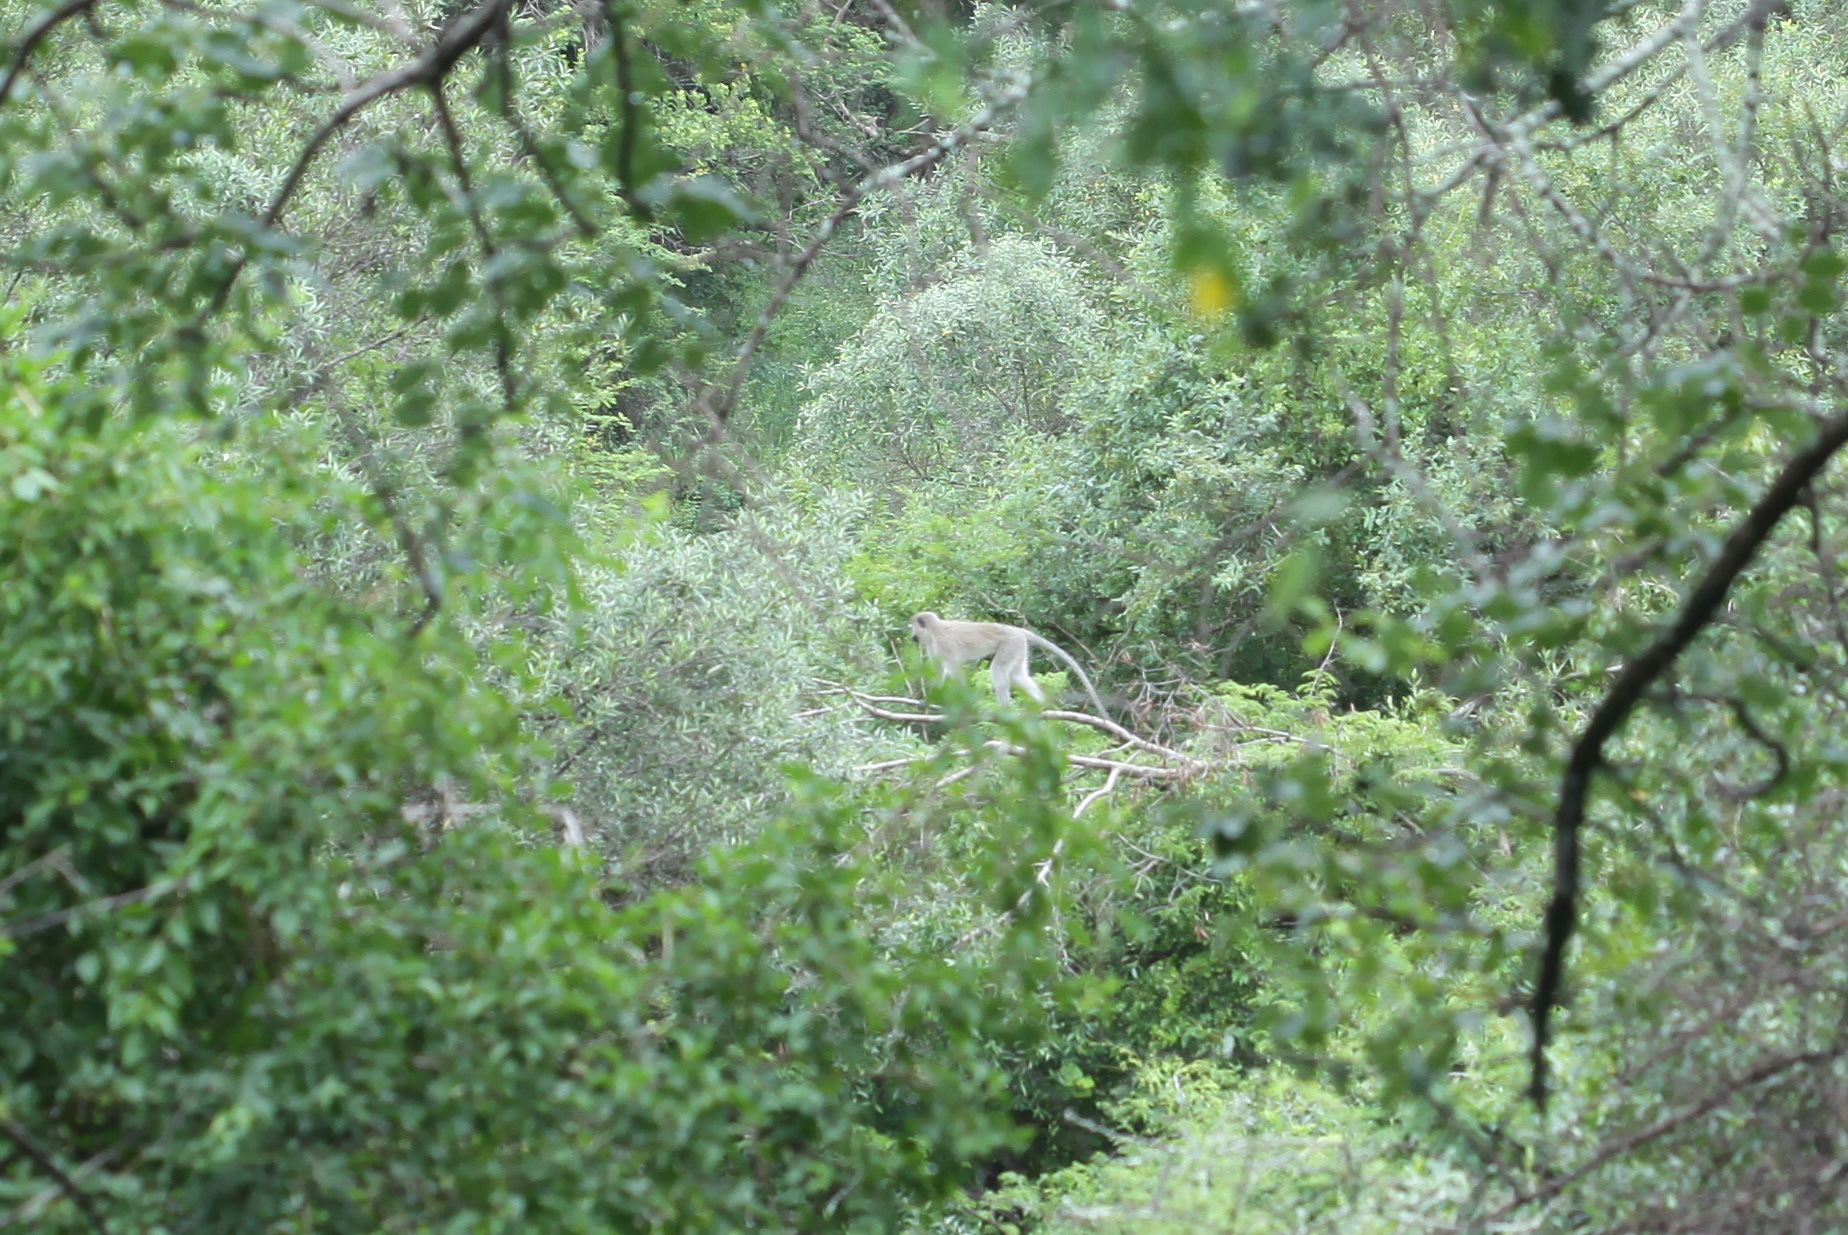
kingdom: Animalia
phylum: Chordata
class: Mammalia
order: Primates
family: Cercopithecidae
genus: Chlorocebus
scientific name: Chlorocebus pygerythrus
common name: Vervet monkey
